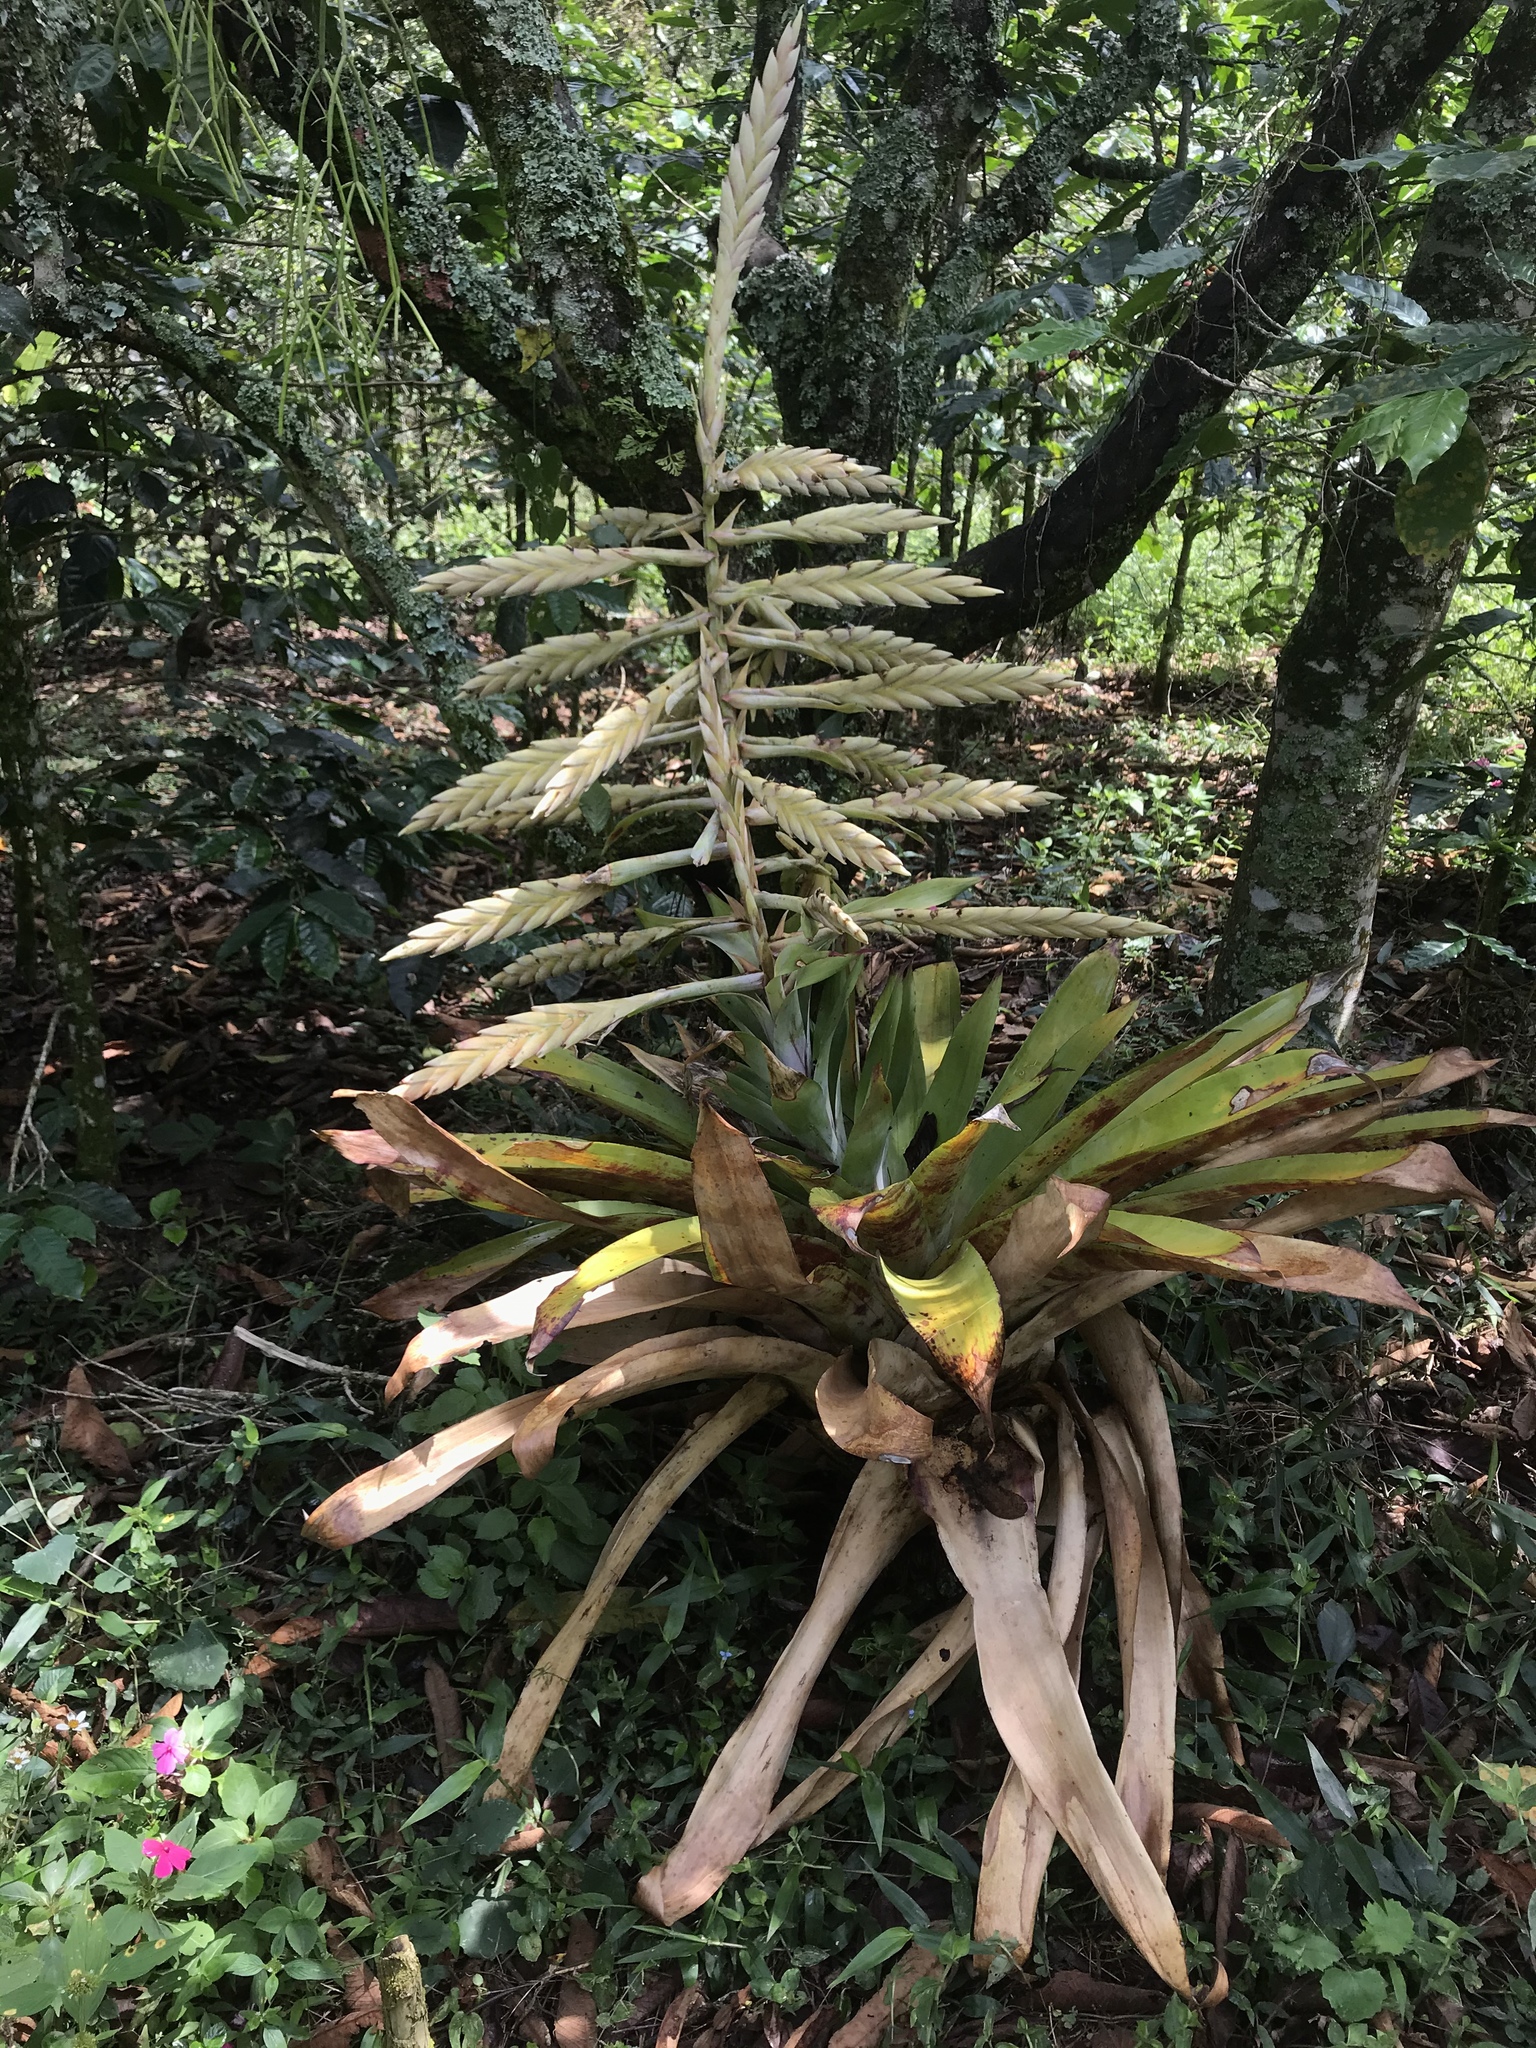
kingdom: Plantae
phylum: Tracheophyta
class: Liliopsida
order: Poales
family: Bromeliaceae
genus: Tillandsia
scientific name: Tillandsia fendleri
